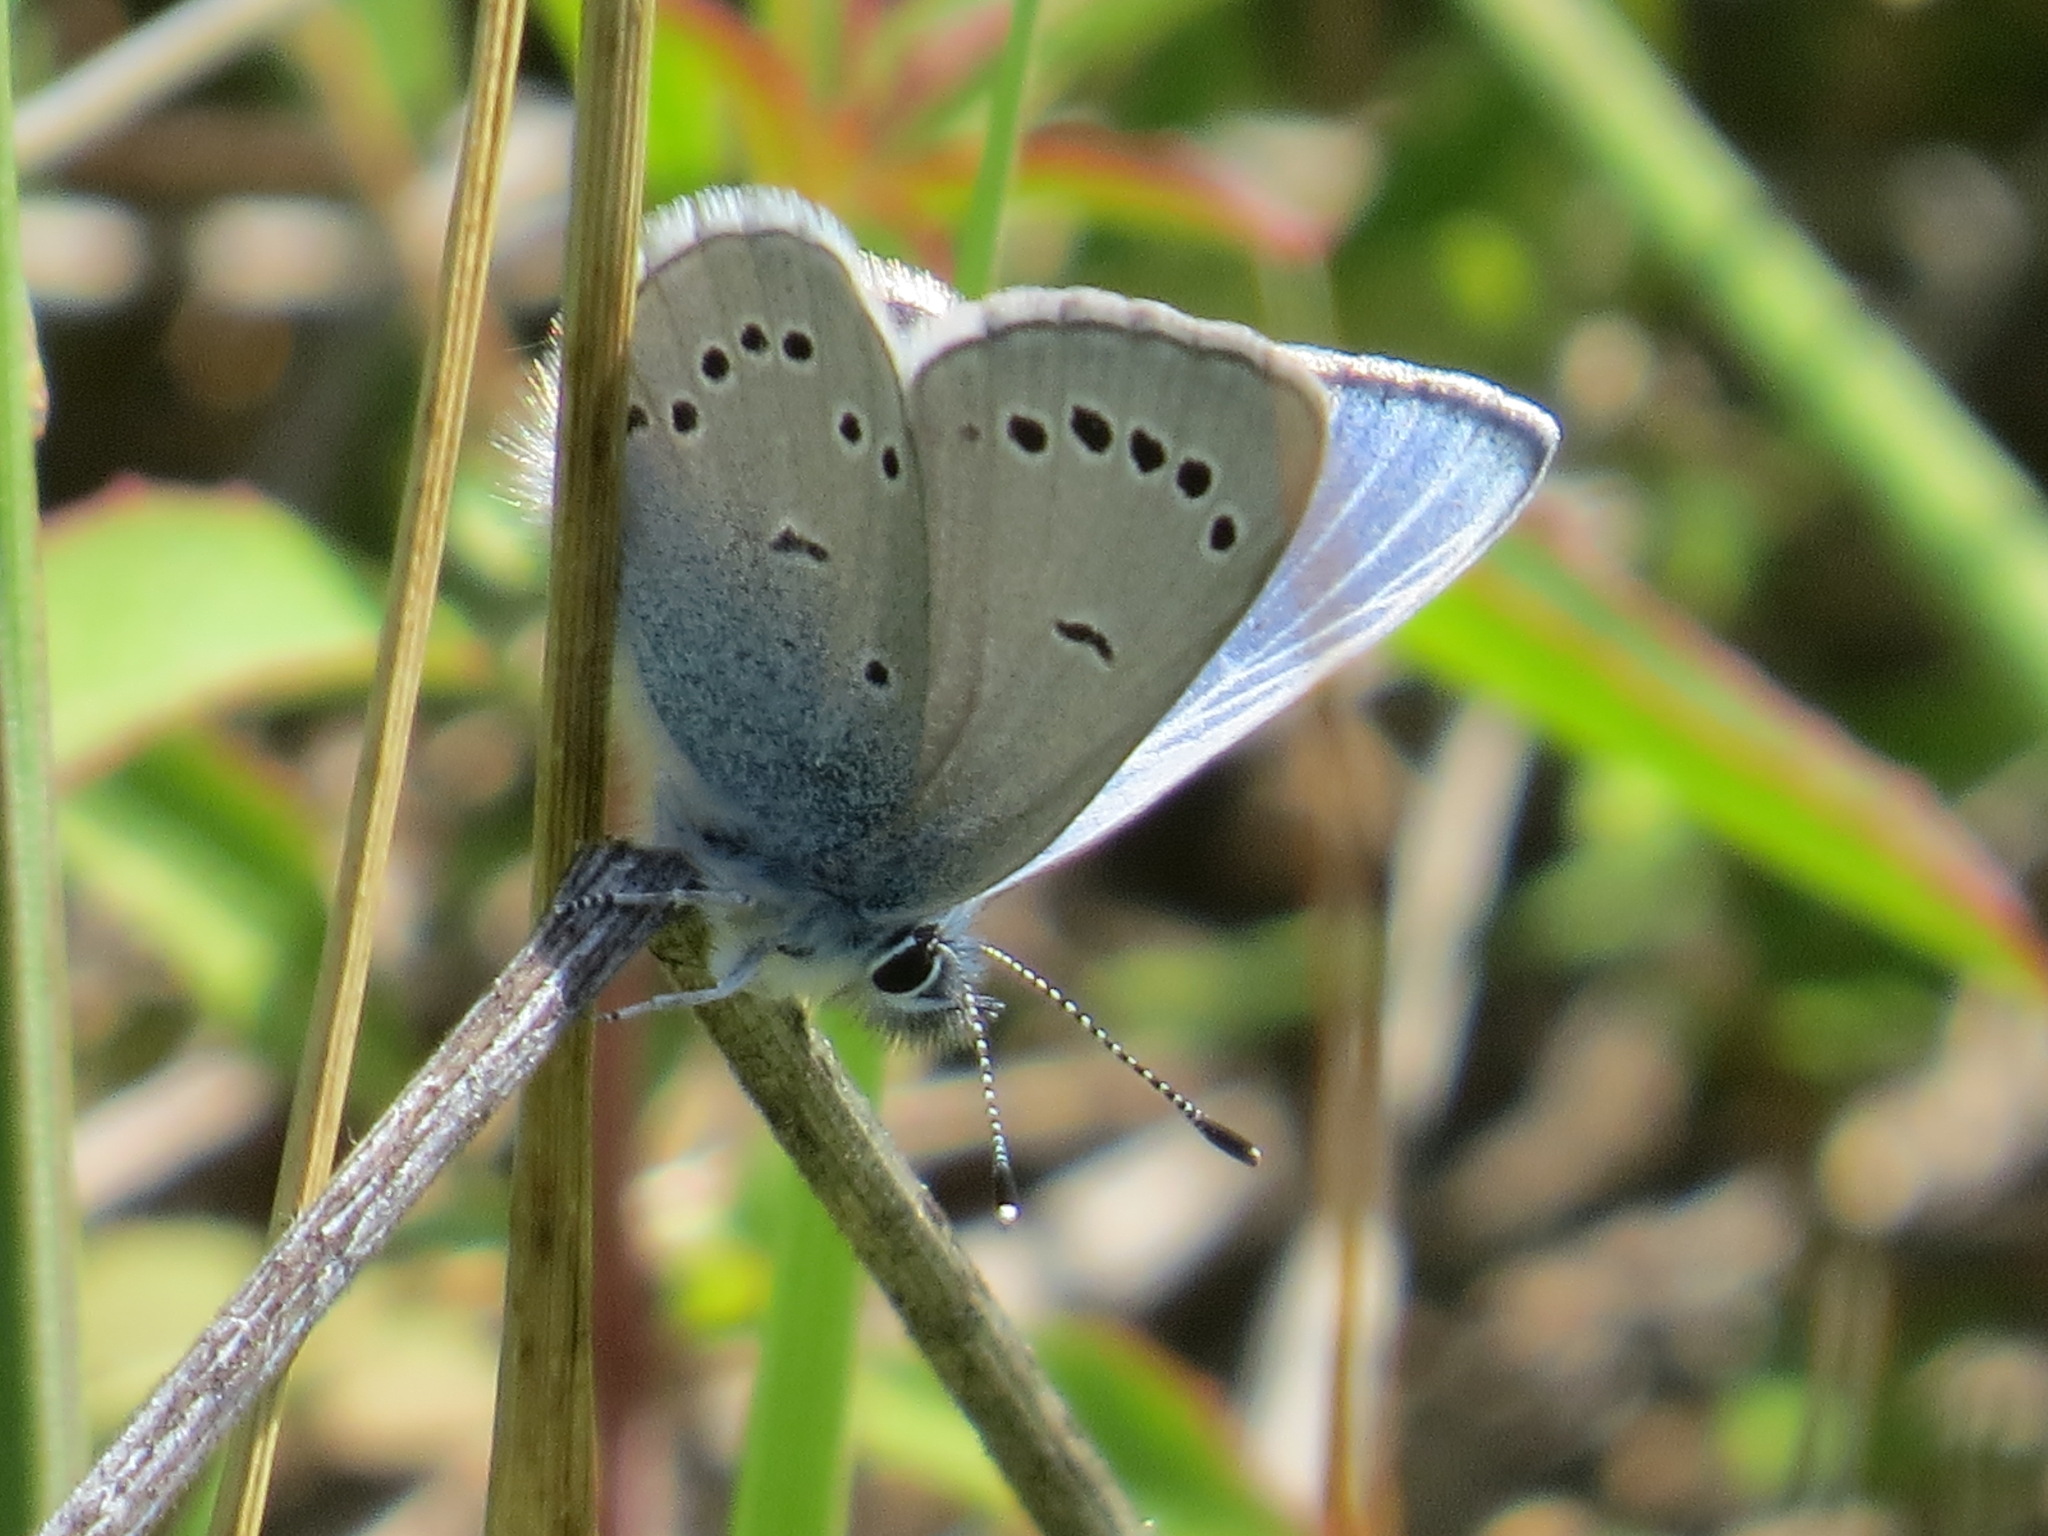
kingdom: Animalia
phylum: Arthropoda
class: Insecta
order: Lepidoptera
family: Lycaenidae
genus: Glaucopsyche
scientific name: Glaucopsyche lygdamus
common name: Silvery blue
